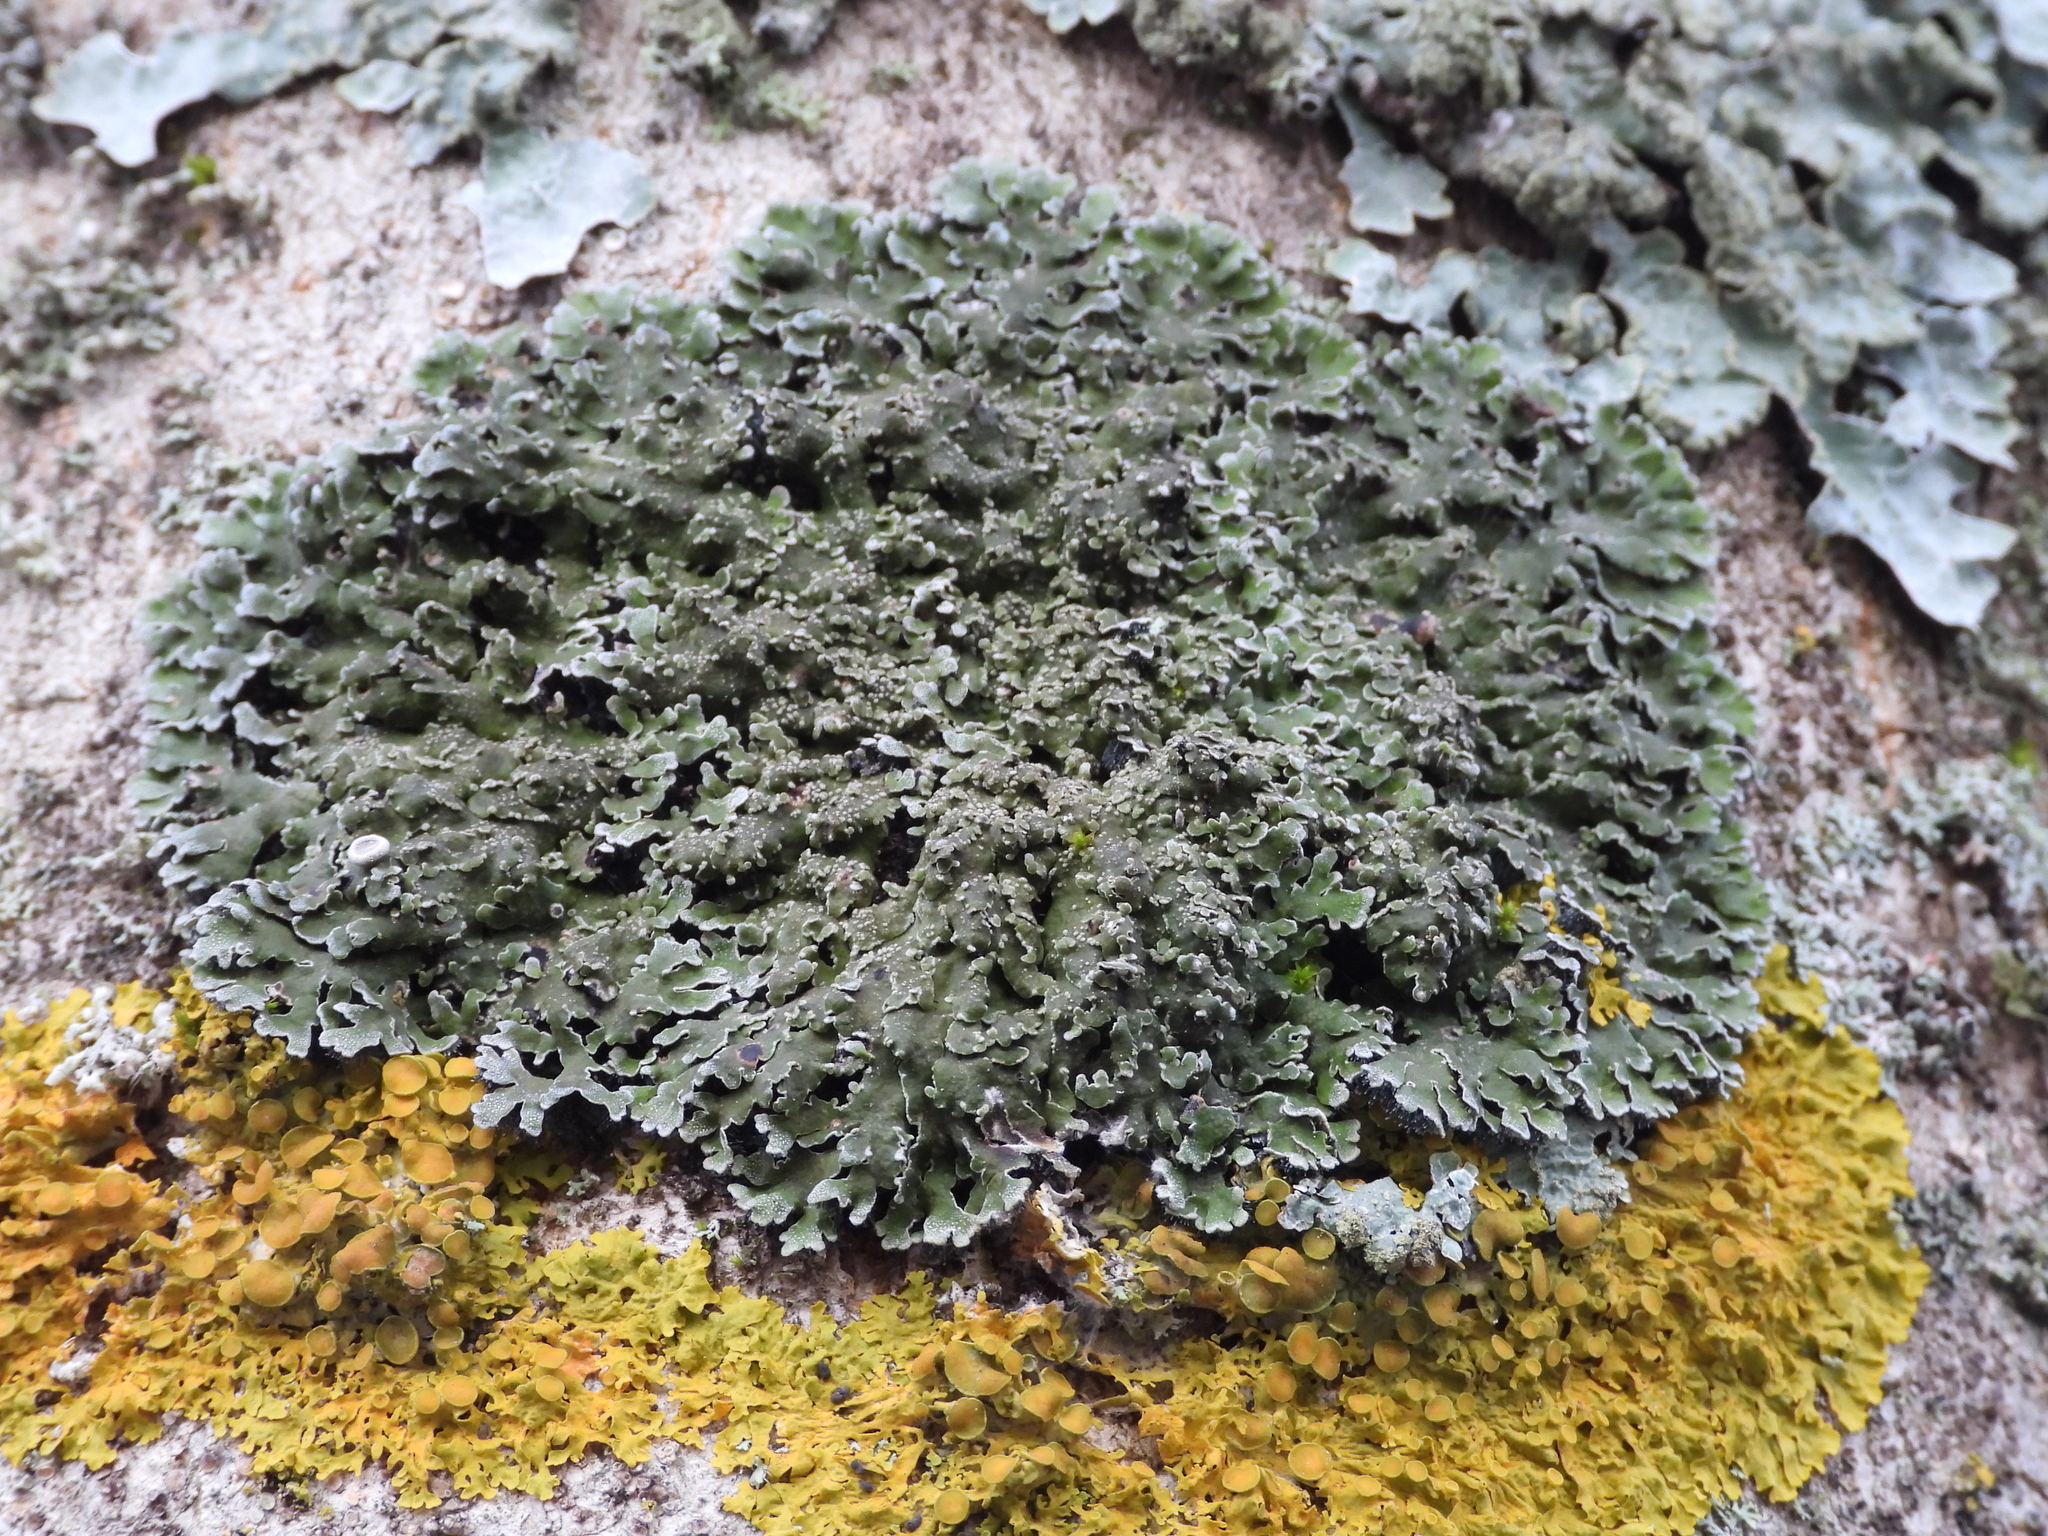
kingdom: Fungi
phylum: Ascomycota
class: Lecanoromycetes
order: Caliciales
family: Physciaceae
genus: Physconia
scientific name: Physconia distorta
